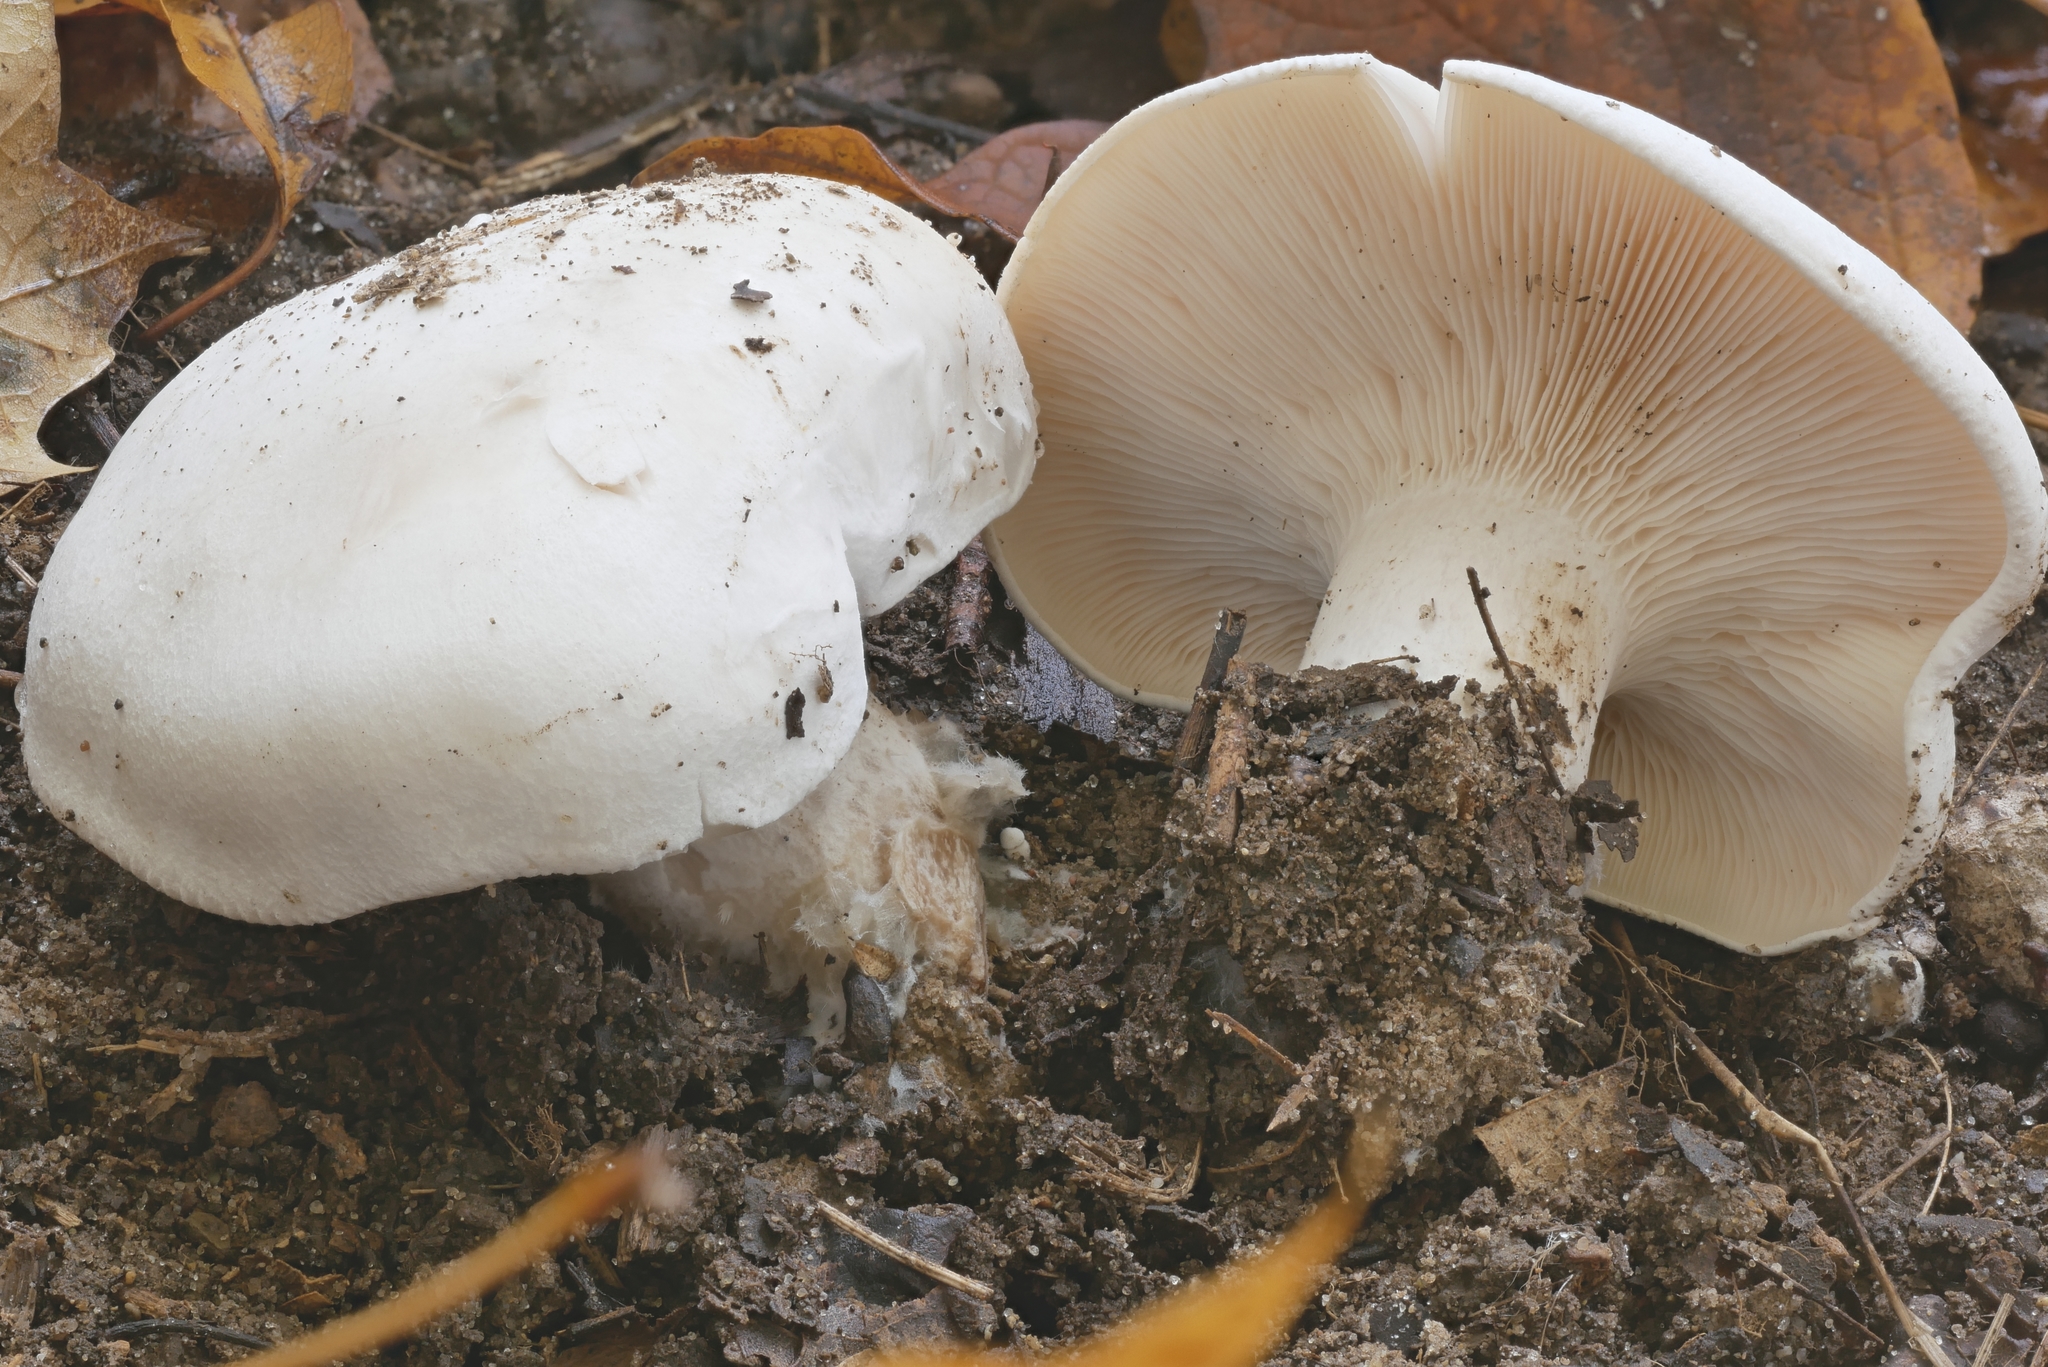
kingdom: Fungi
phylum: Basidiomycota
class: Agaricomycetes
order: Agaricales
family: Tricholomataceae
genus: Clitocybe
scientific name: Clitocybe robusta
